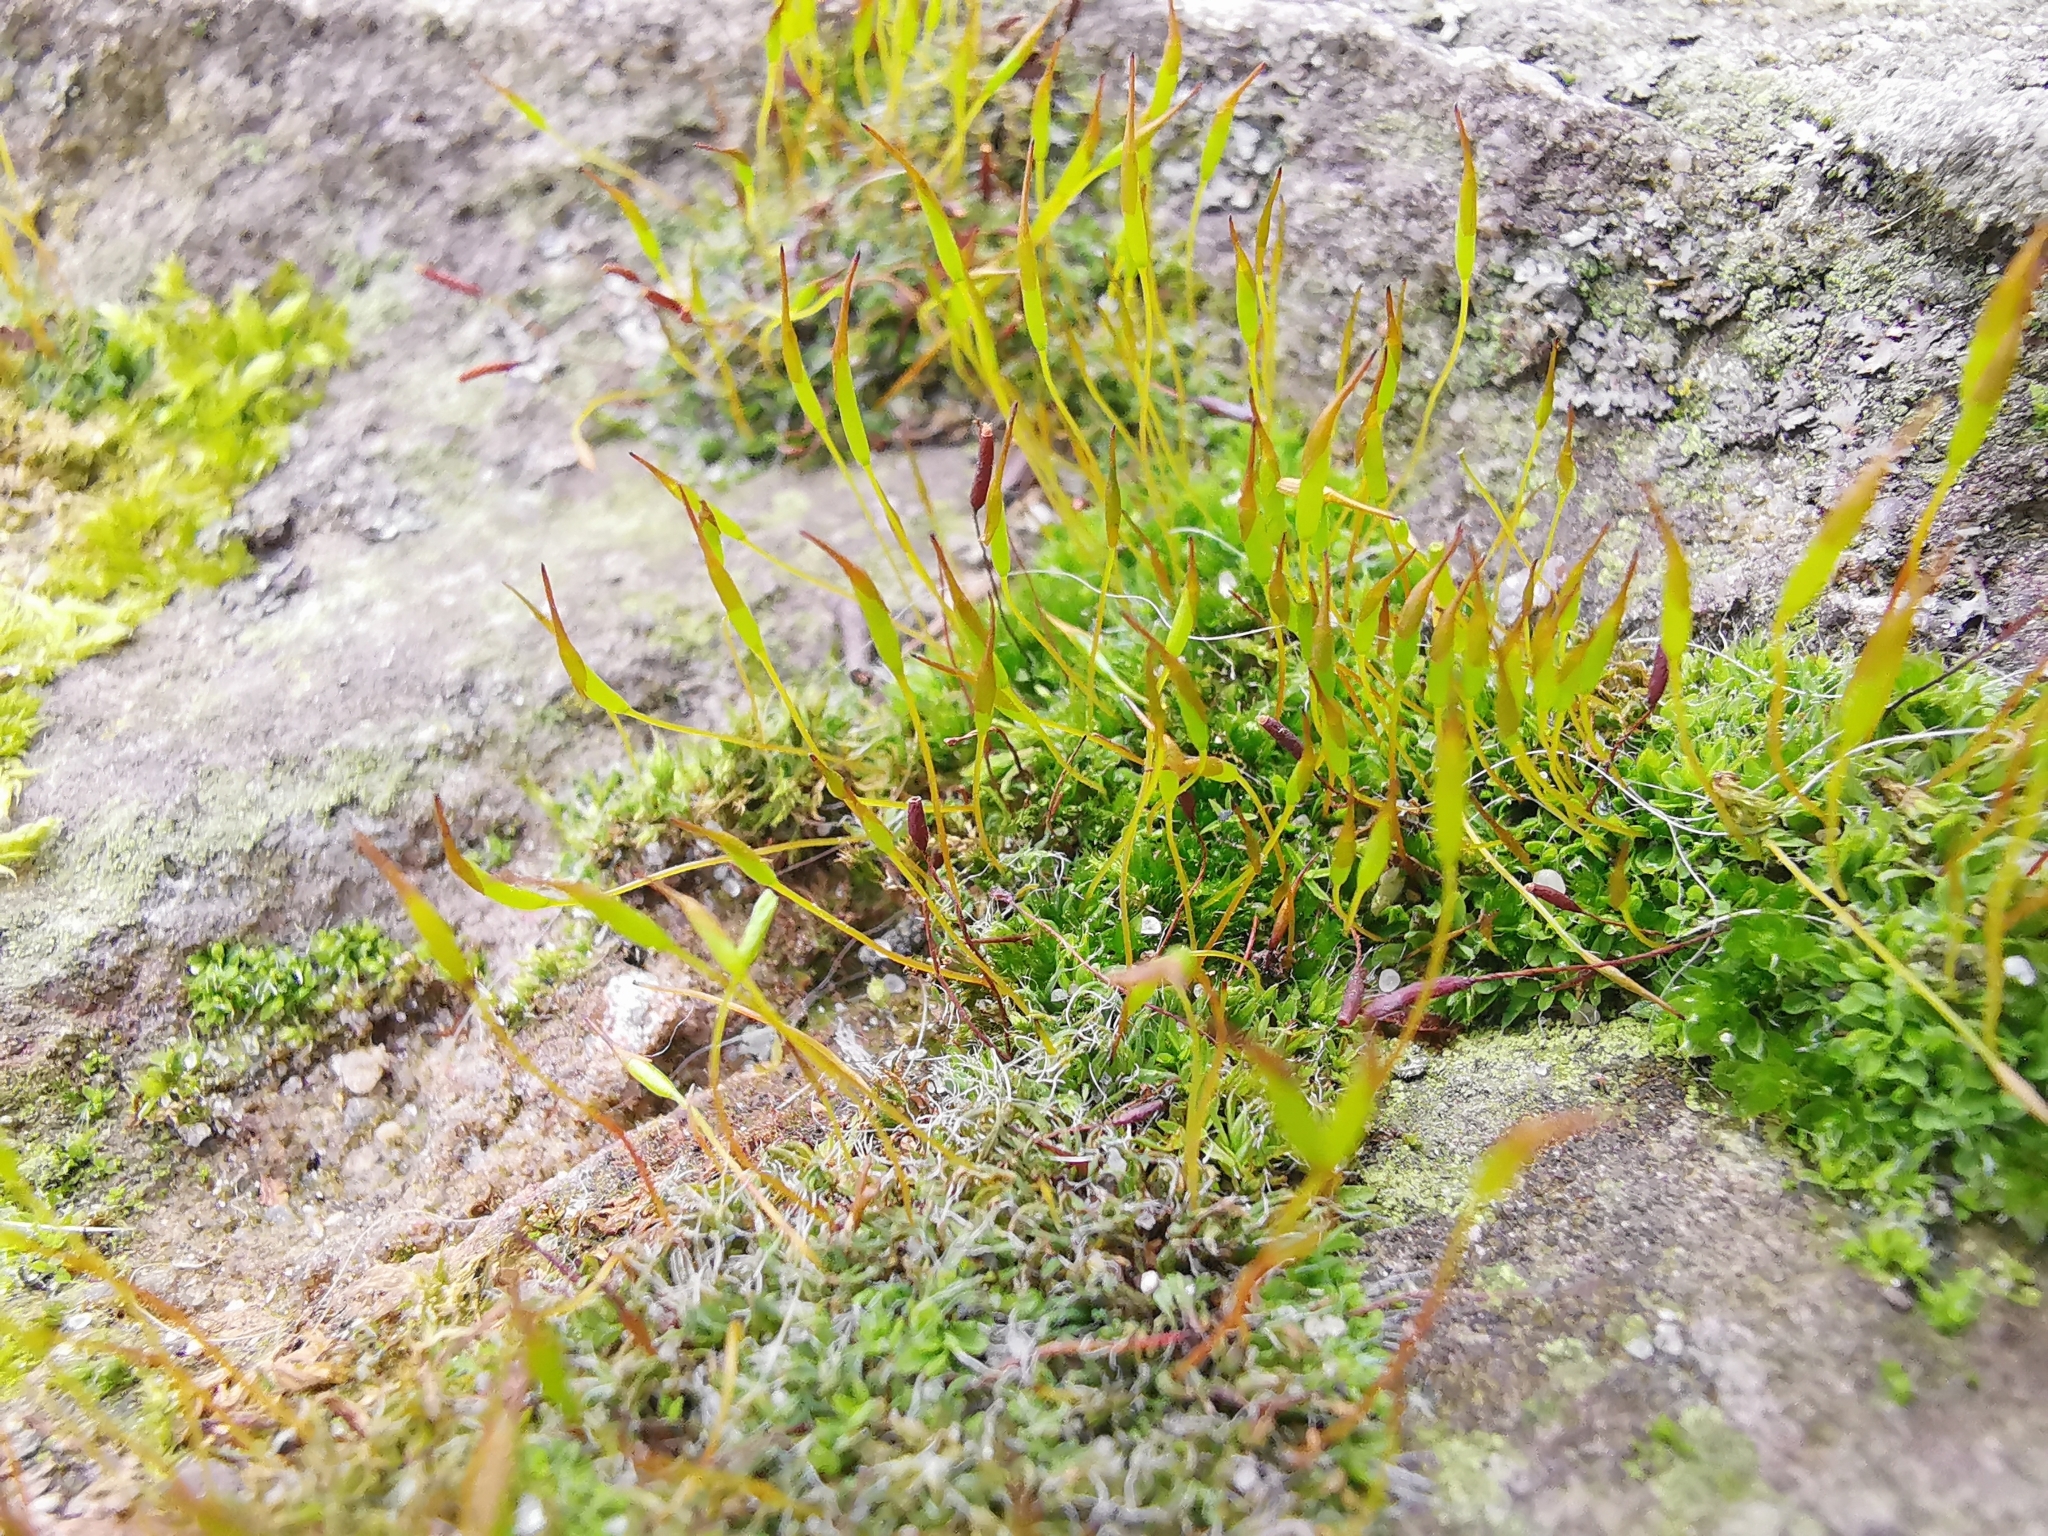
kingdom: Plantae
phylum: Bryophyta
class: Bryopsida
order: Pottiales
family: Pottiaceae
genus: Tortula
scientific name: Tortula muralis
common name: Wall screw-moss
